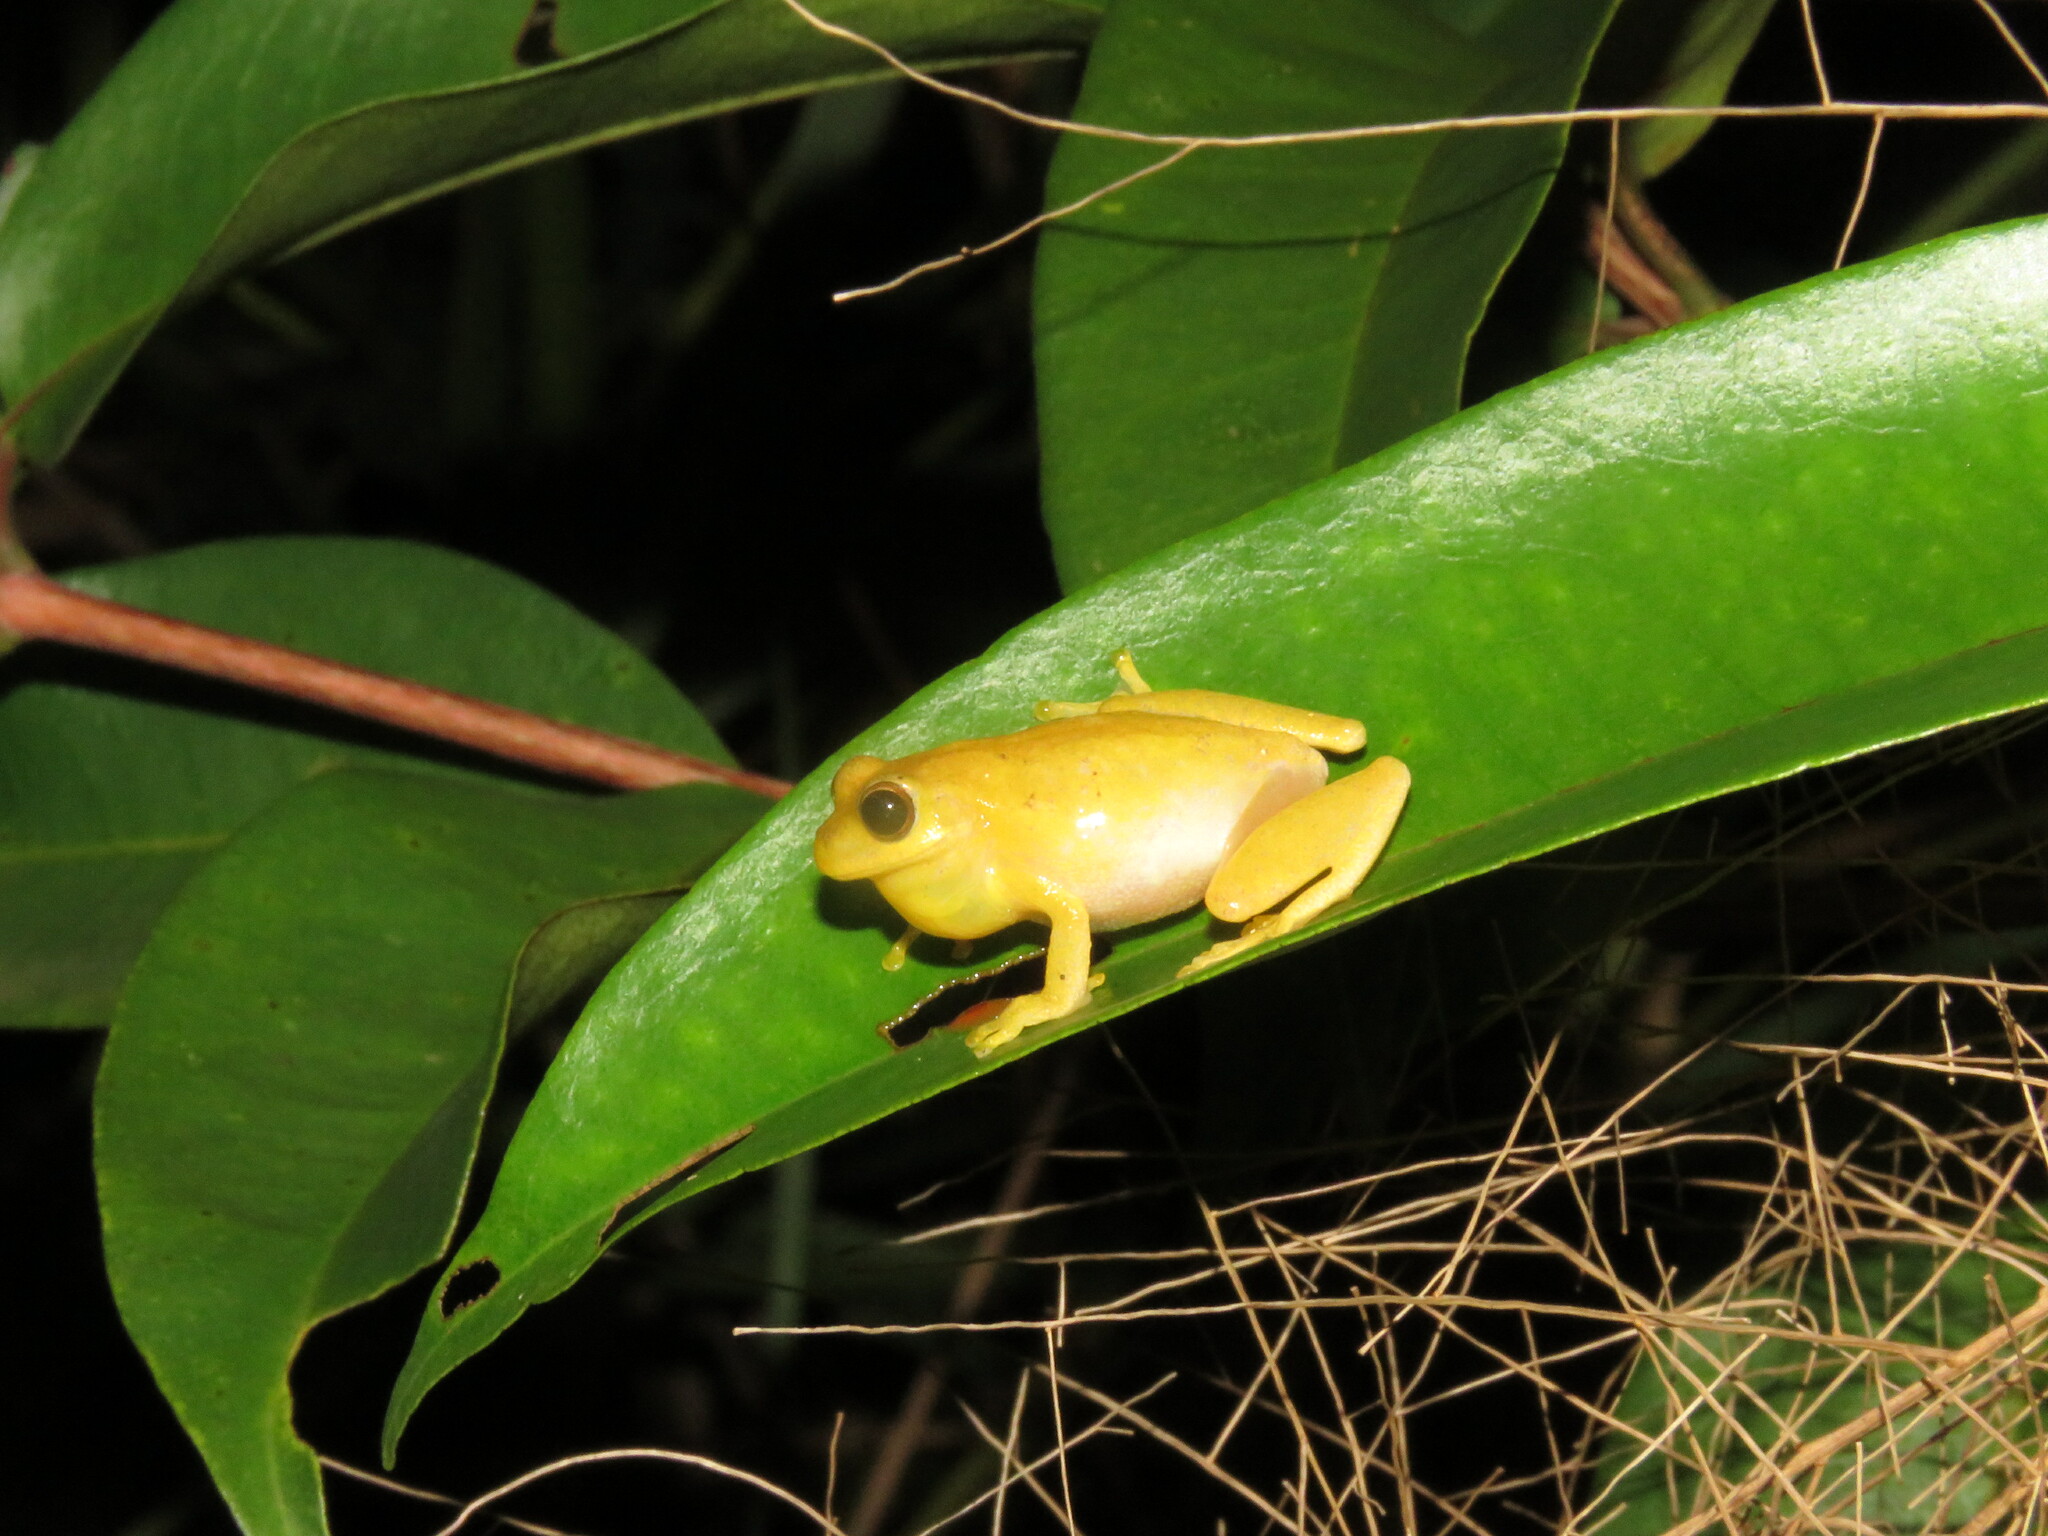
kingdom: Animalia
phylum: Chordata
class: Amphibia
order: Anura
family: Hylidae
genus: Dendropsophus
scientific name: Dendropsophus minutus
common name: Lesser treefrog
